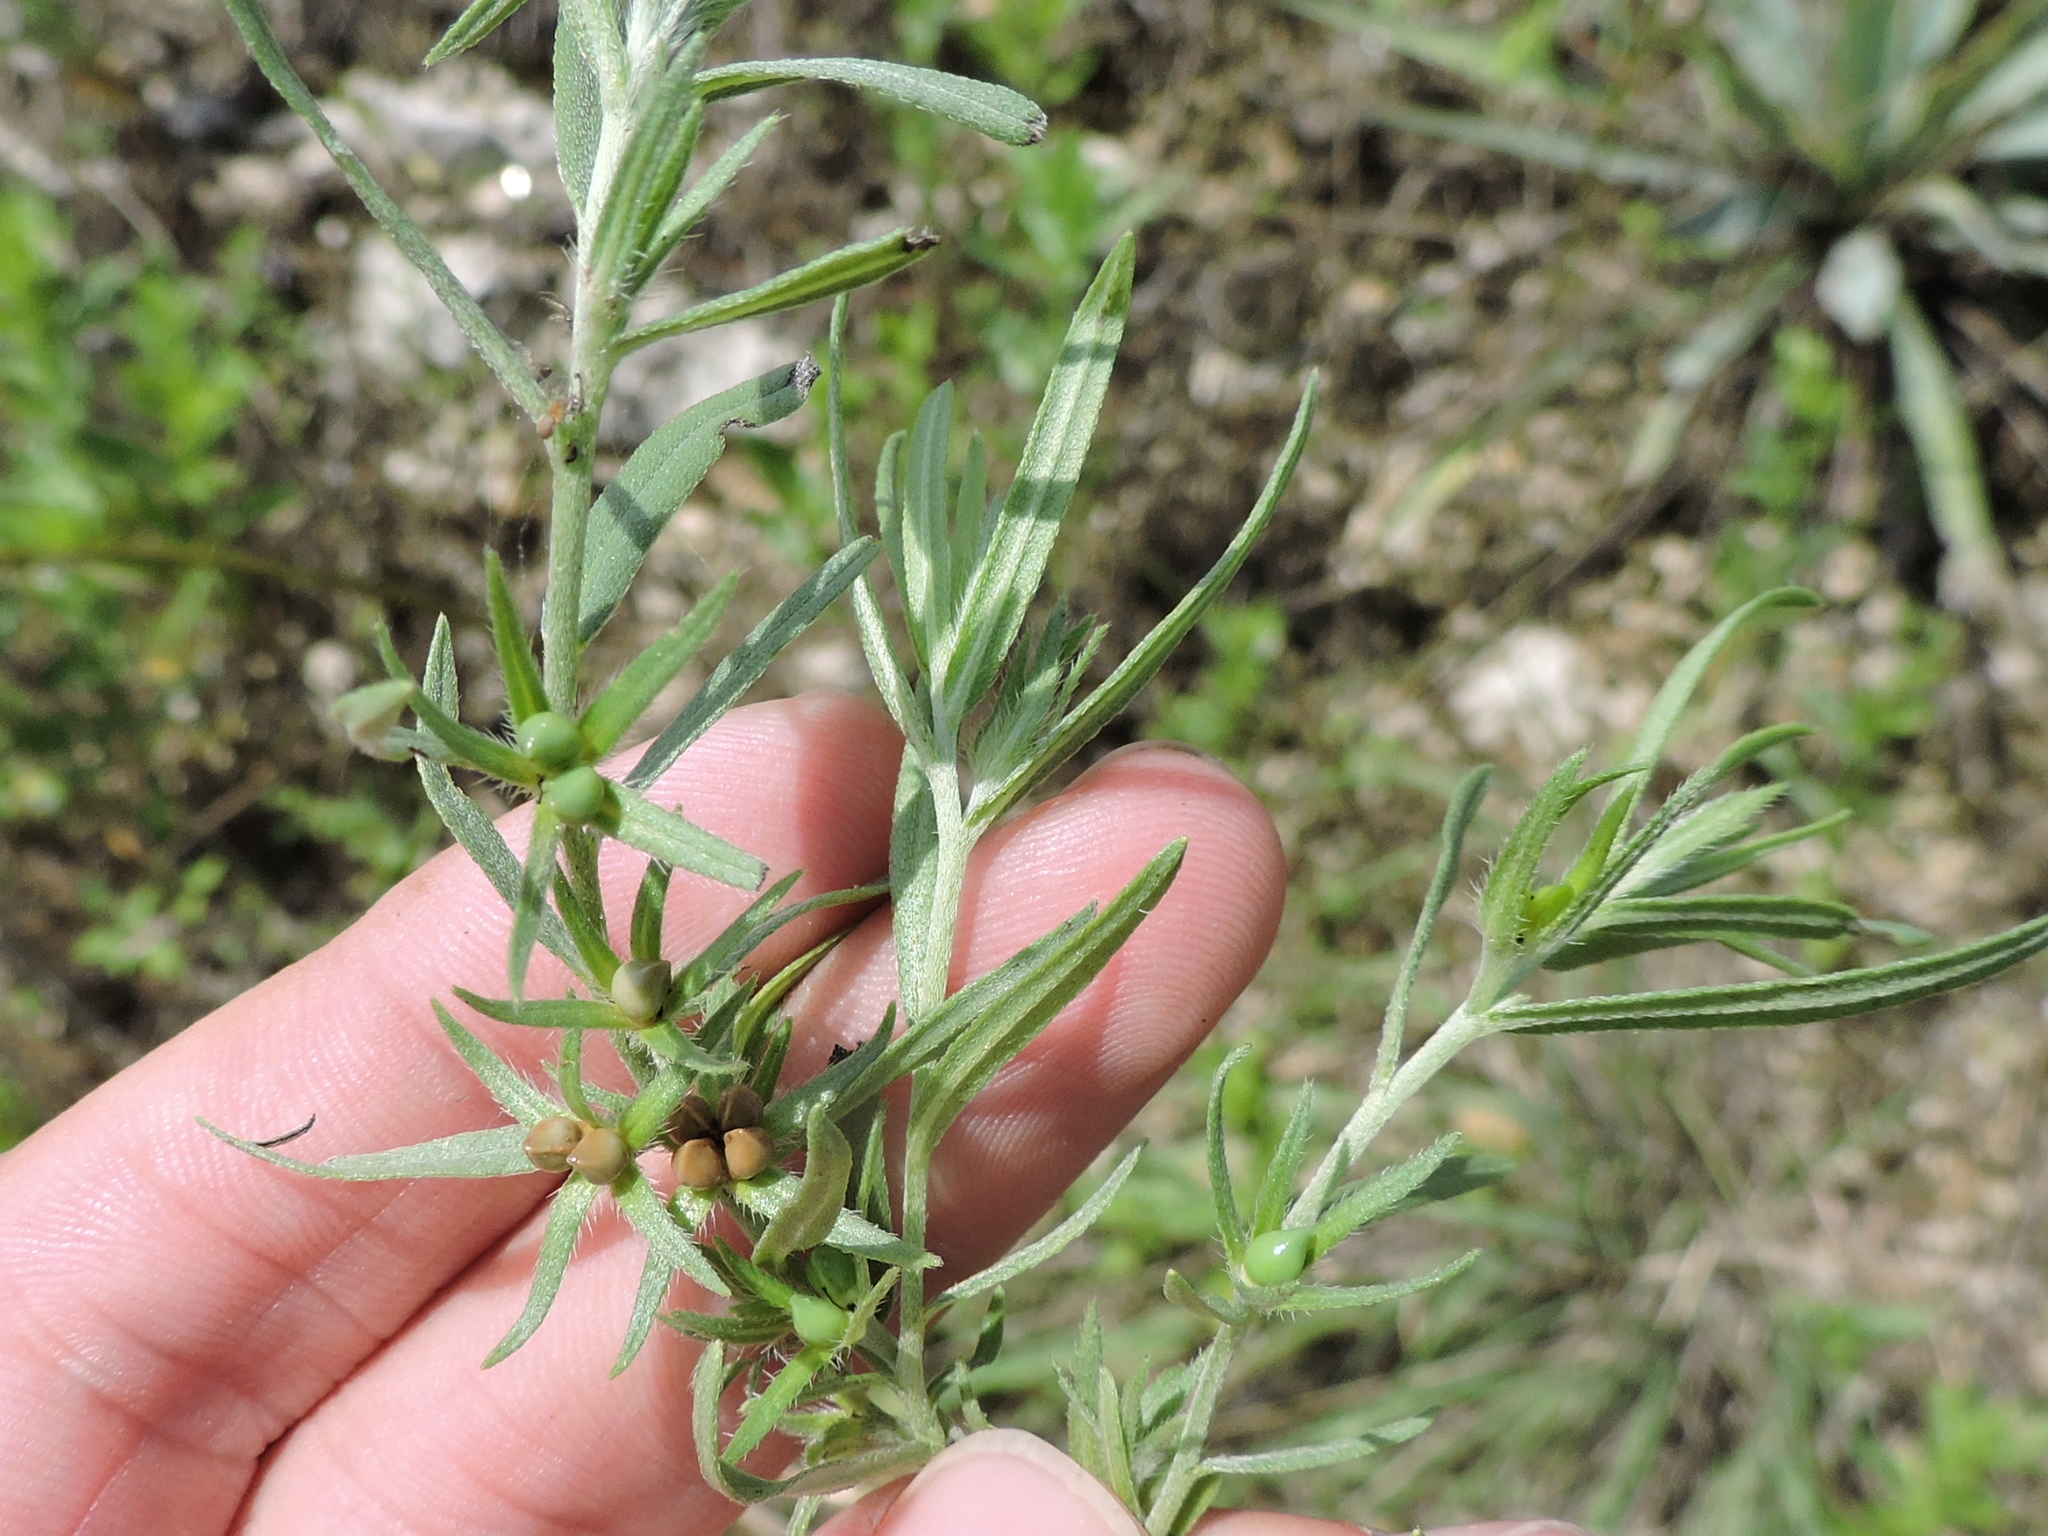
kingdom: Plantae
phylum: Tracheophyta
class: Magnoliopsida
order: Boraginales
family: Boraginaceae
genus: Lithospermum
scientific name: Lithospermum incisum
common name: Fringed gromwell
